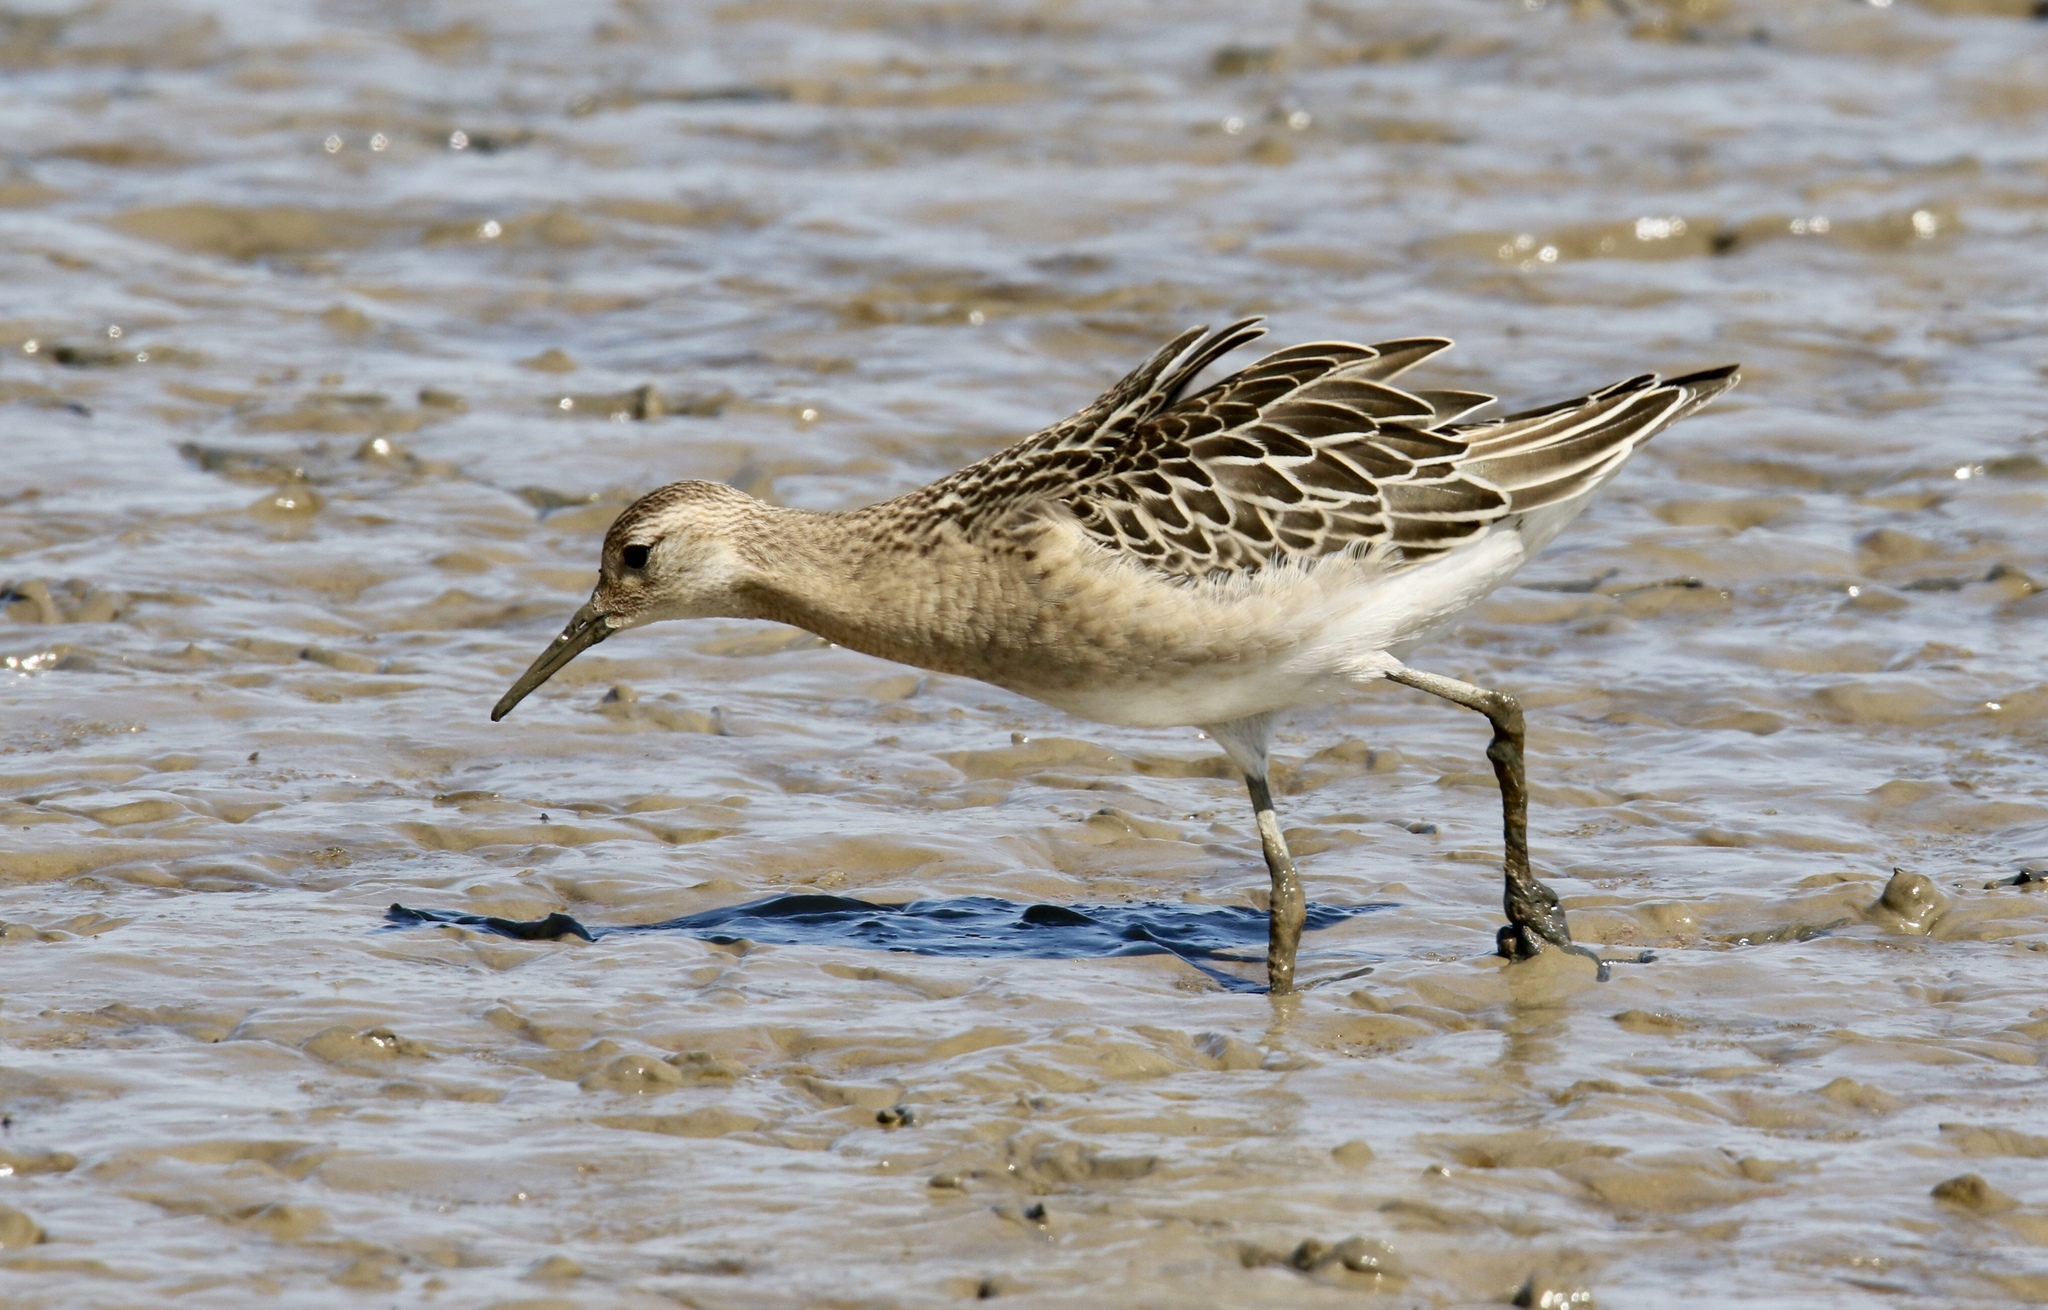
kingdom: Animalia
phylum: Chordata
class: Aves
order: Charadriiformes
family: Scolopacidae
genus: Calidris
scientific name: Calidris pugnax
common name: Ruff
